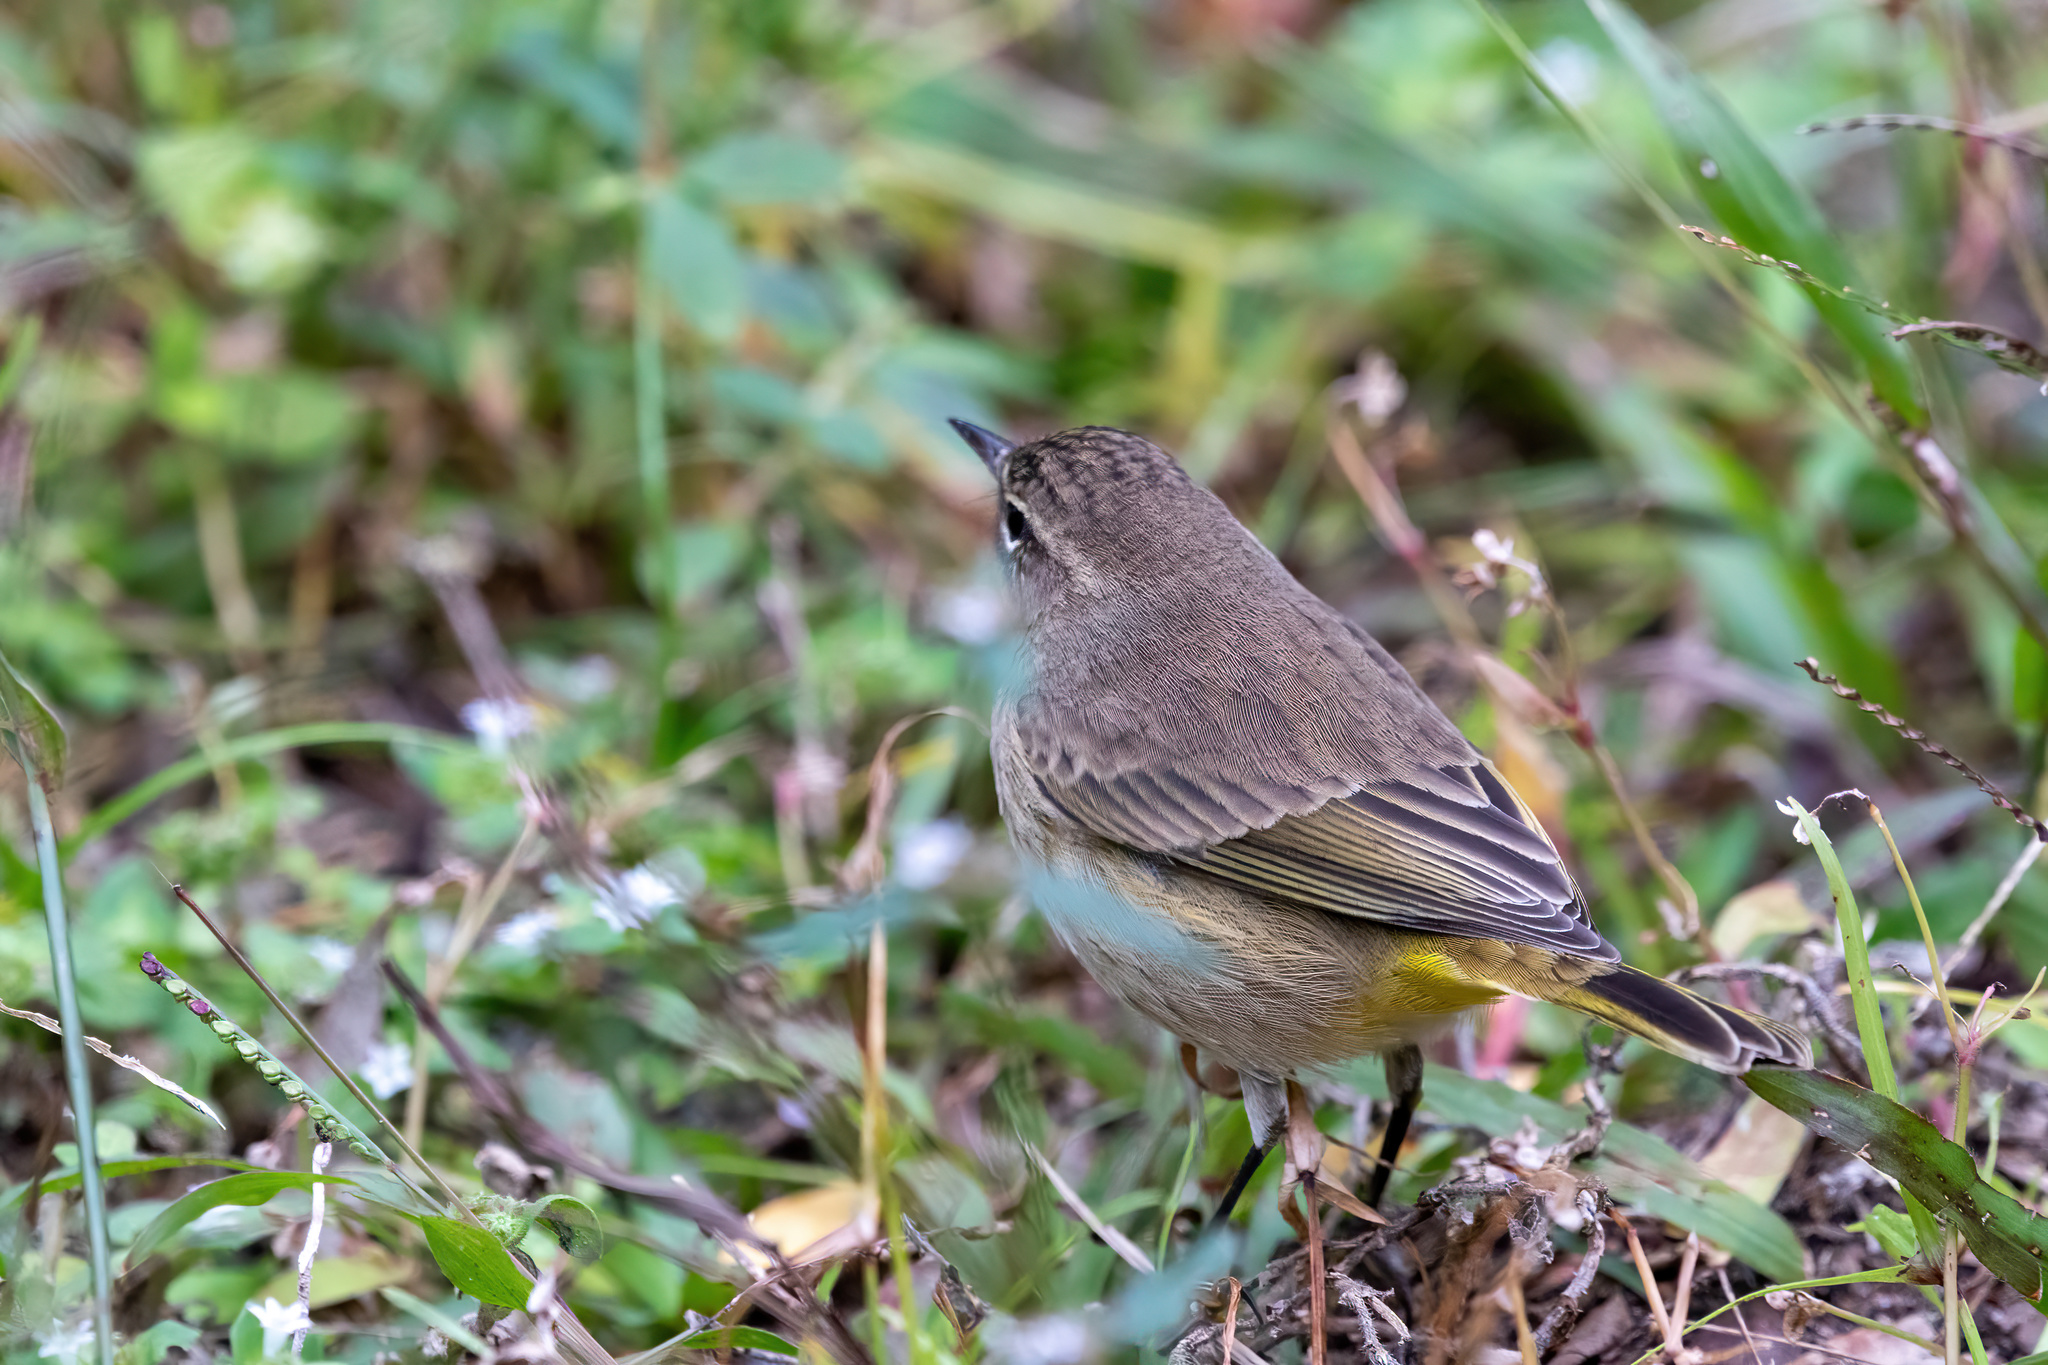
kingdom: Animalia
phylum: Chordata
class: Aves
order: Passeriformes
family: Parulidae
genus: Setophaga
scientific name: Setophaga palmarum
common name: Palm warbler
